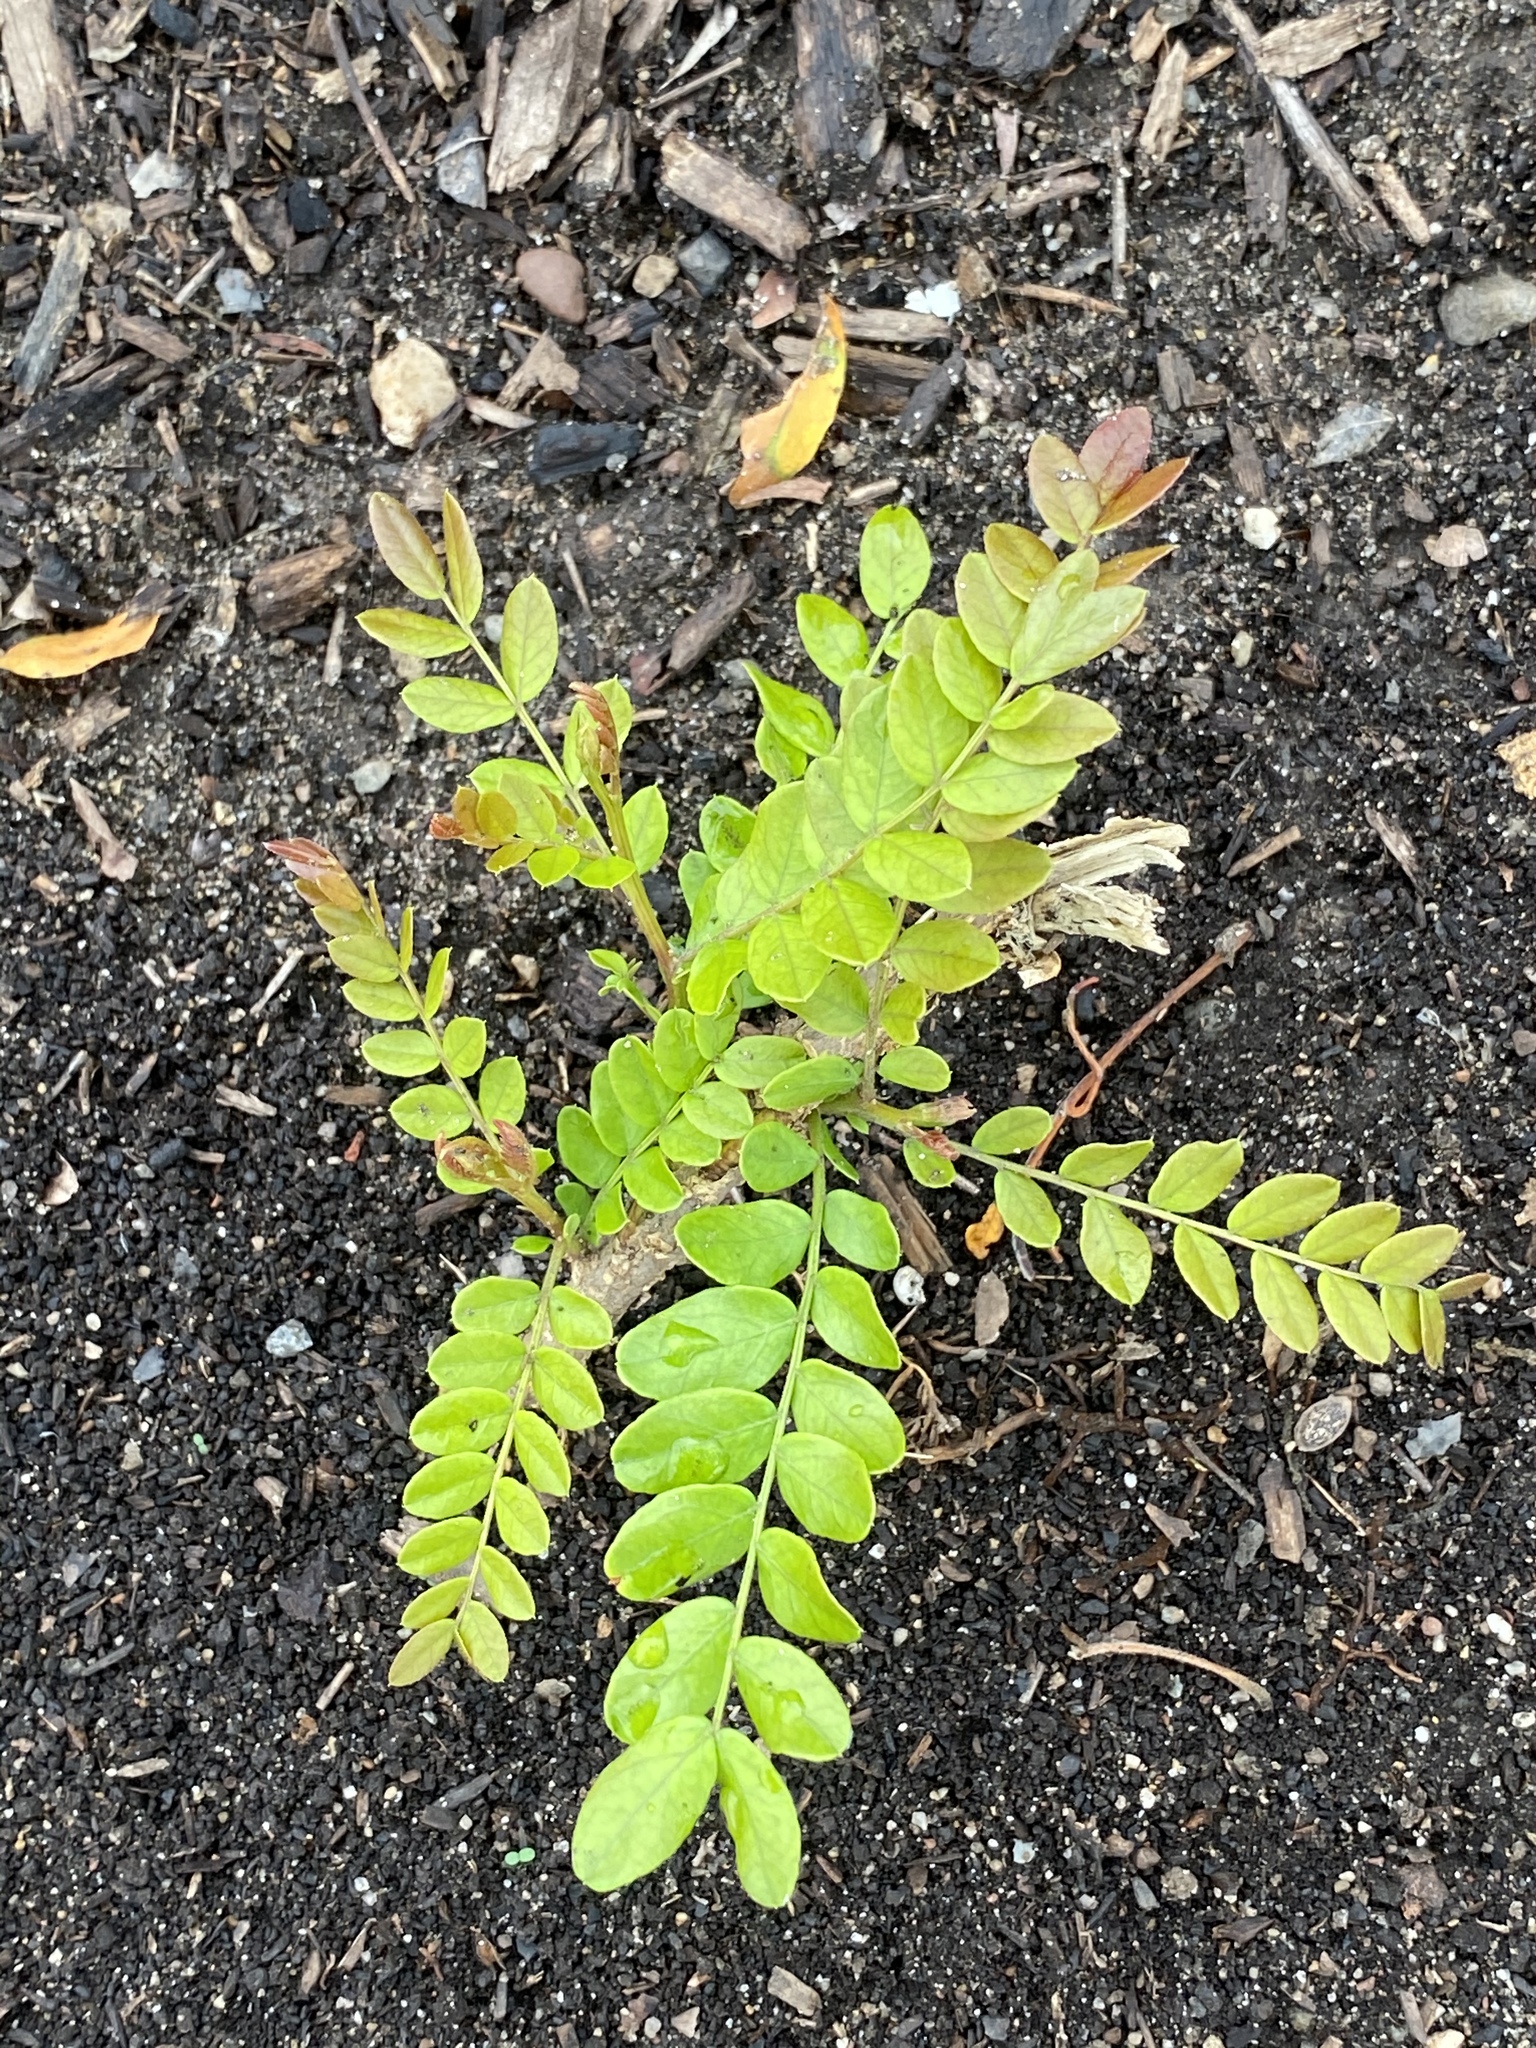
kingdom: Plantae
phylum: Tracheophyta
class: Magnoliopsida
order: Fabales
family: Fabaceae
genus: Gleditsia
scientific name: Gleditsia triacanthos
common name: Common honeylocust
